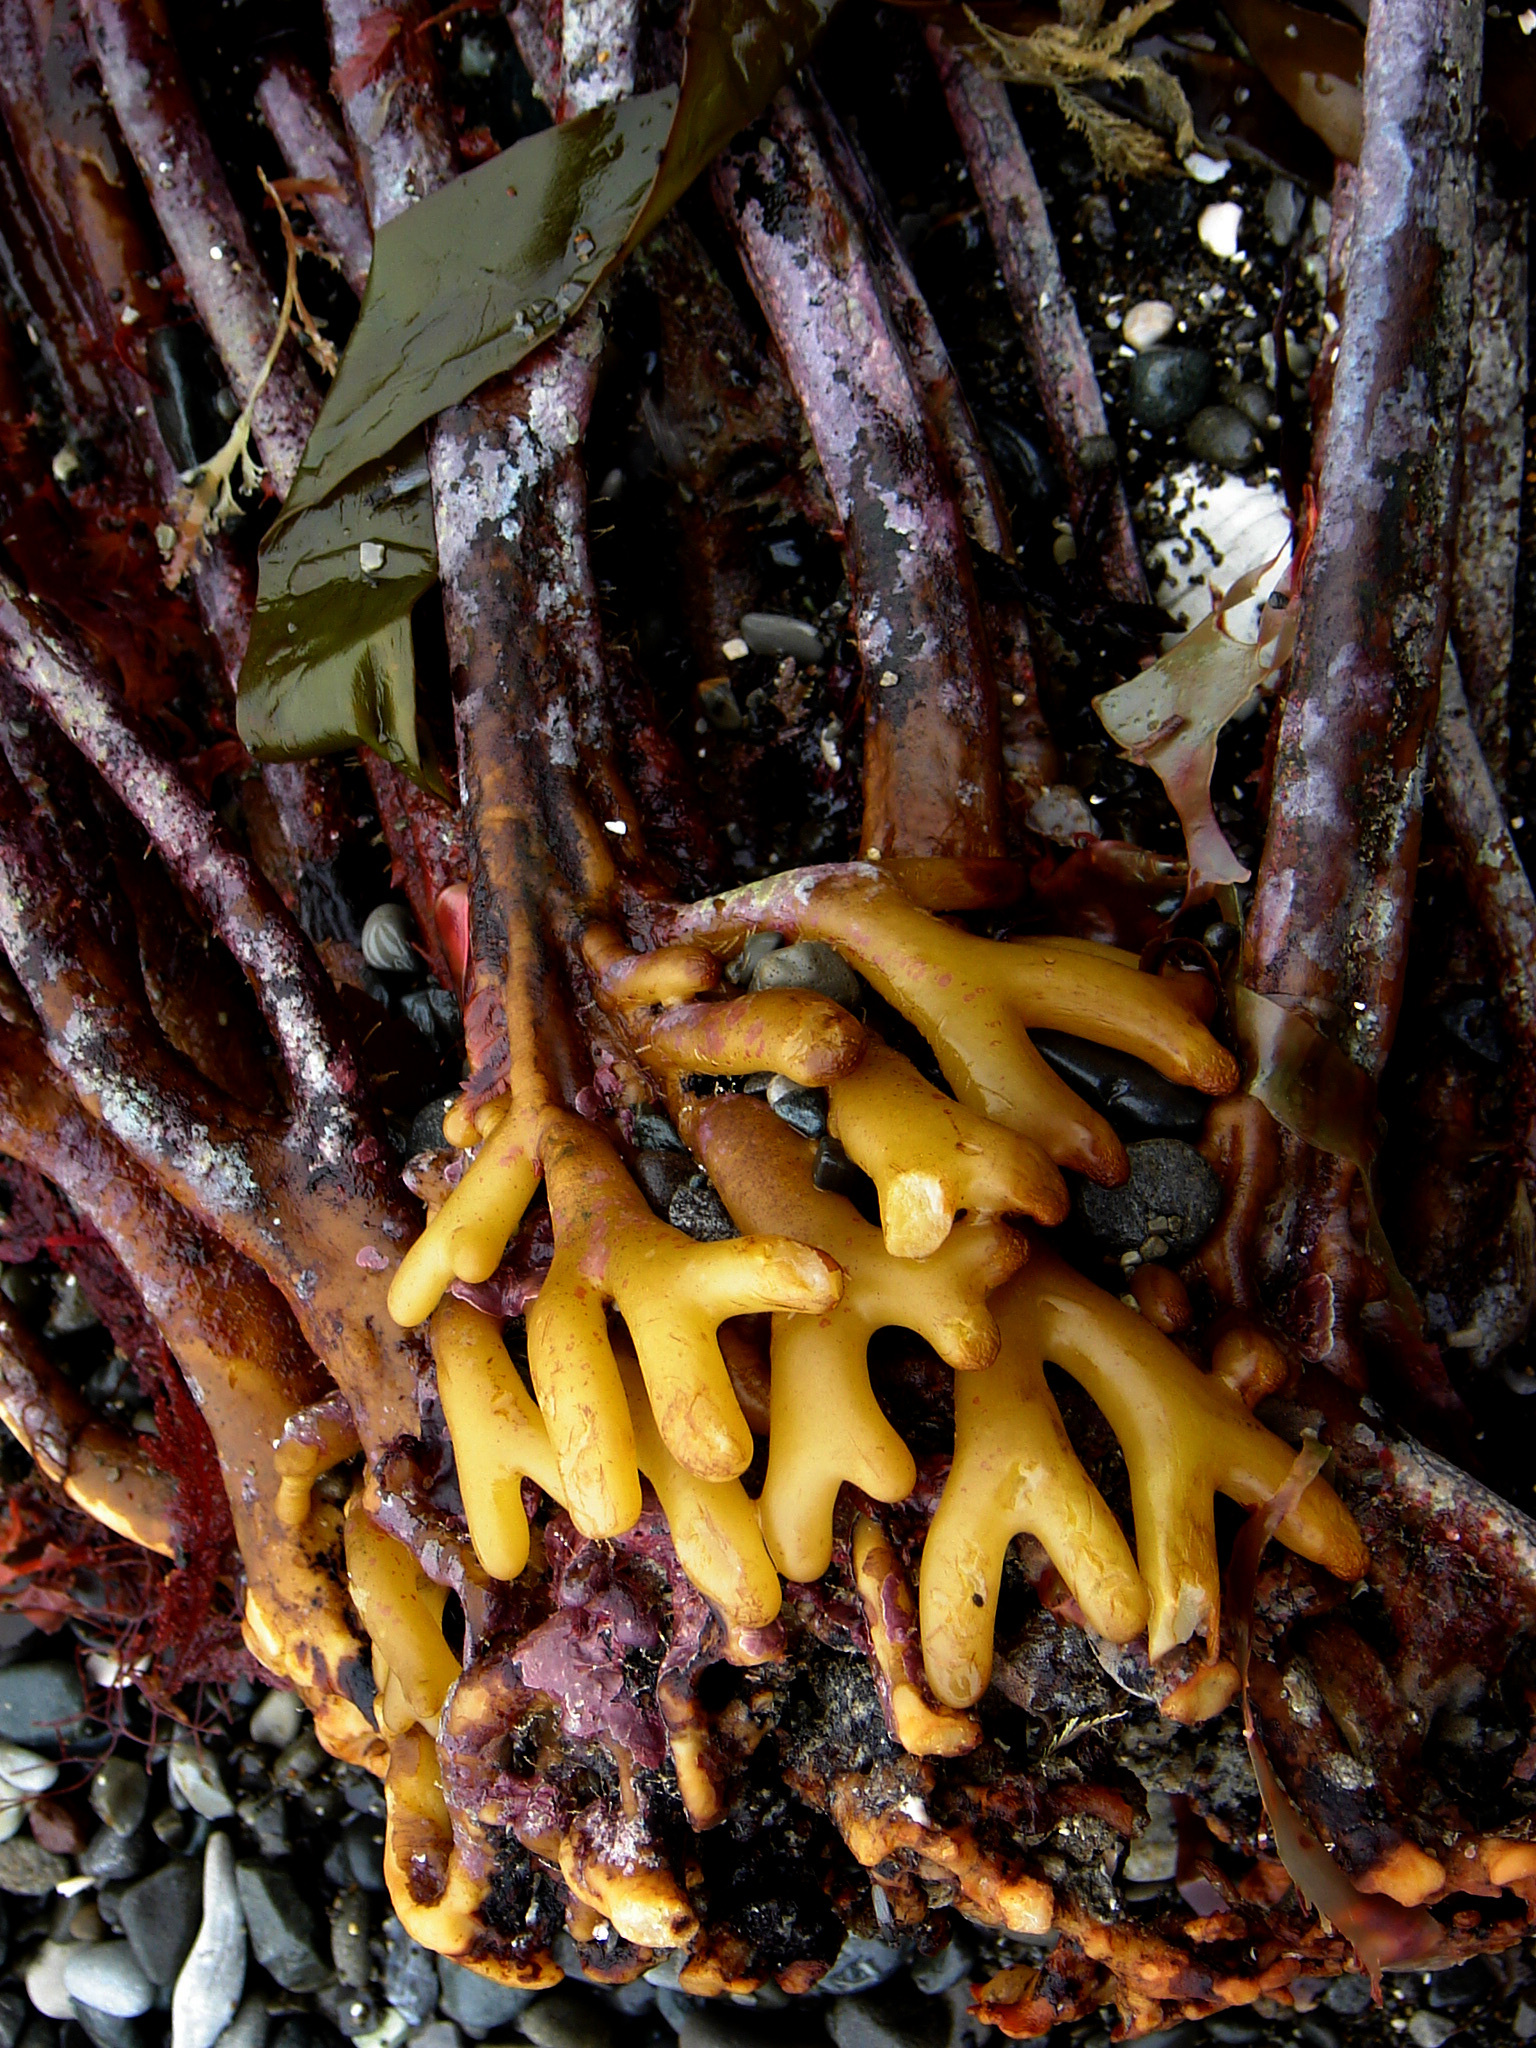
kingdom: Chromista
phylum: Ochrophyta
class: Phaeophyceae
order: Laminariales
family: Lessoniaceae
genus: Lessonia
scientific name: Lessonia
